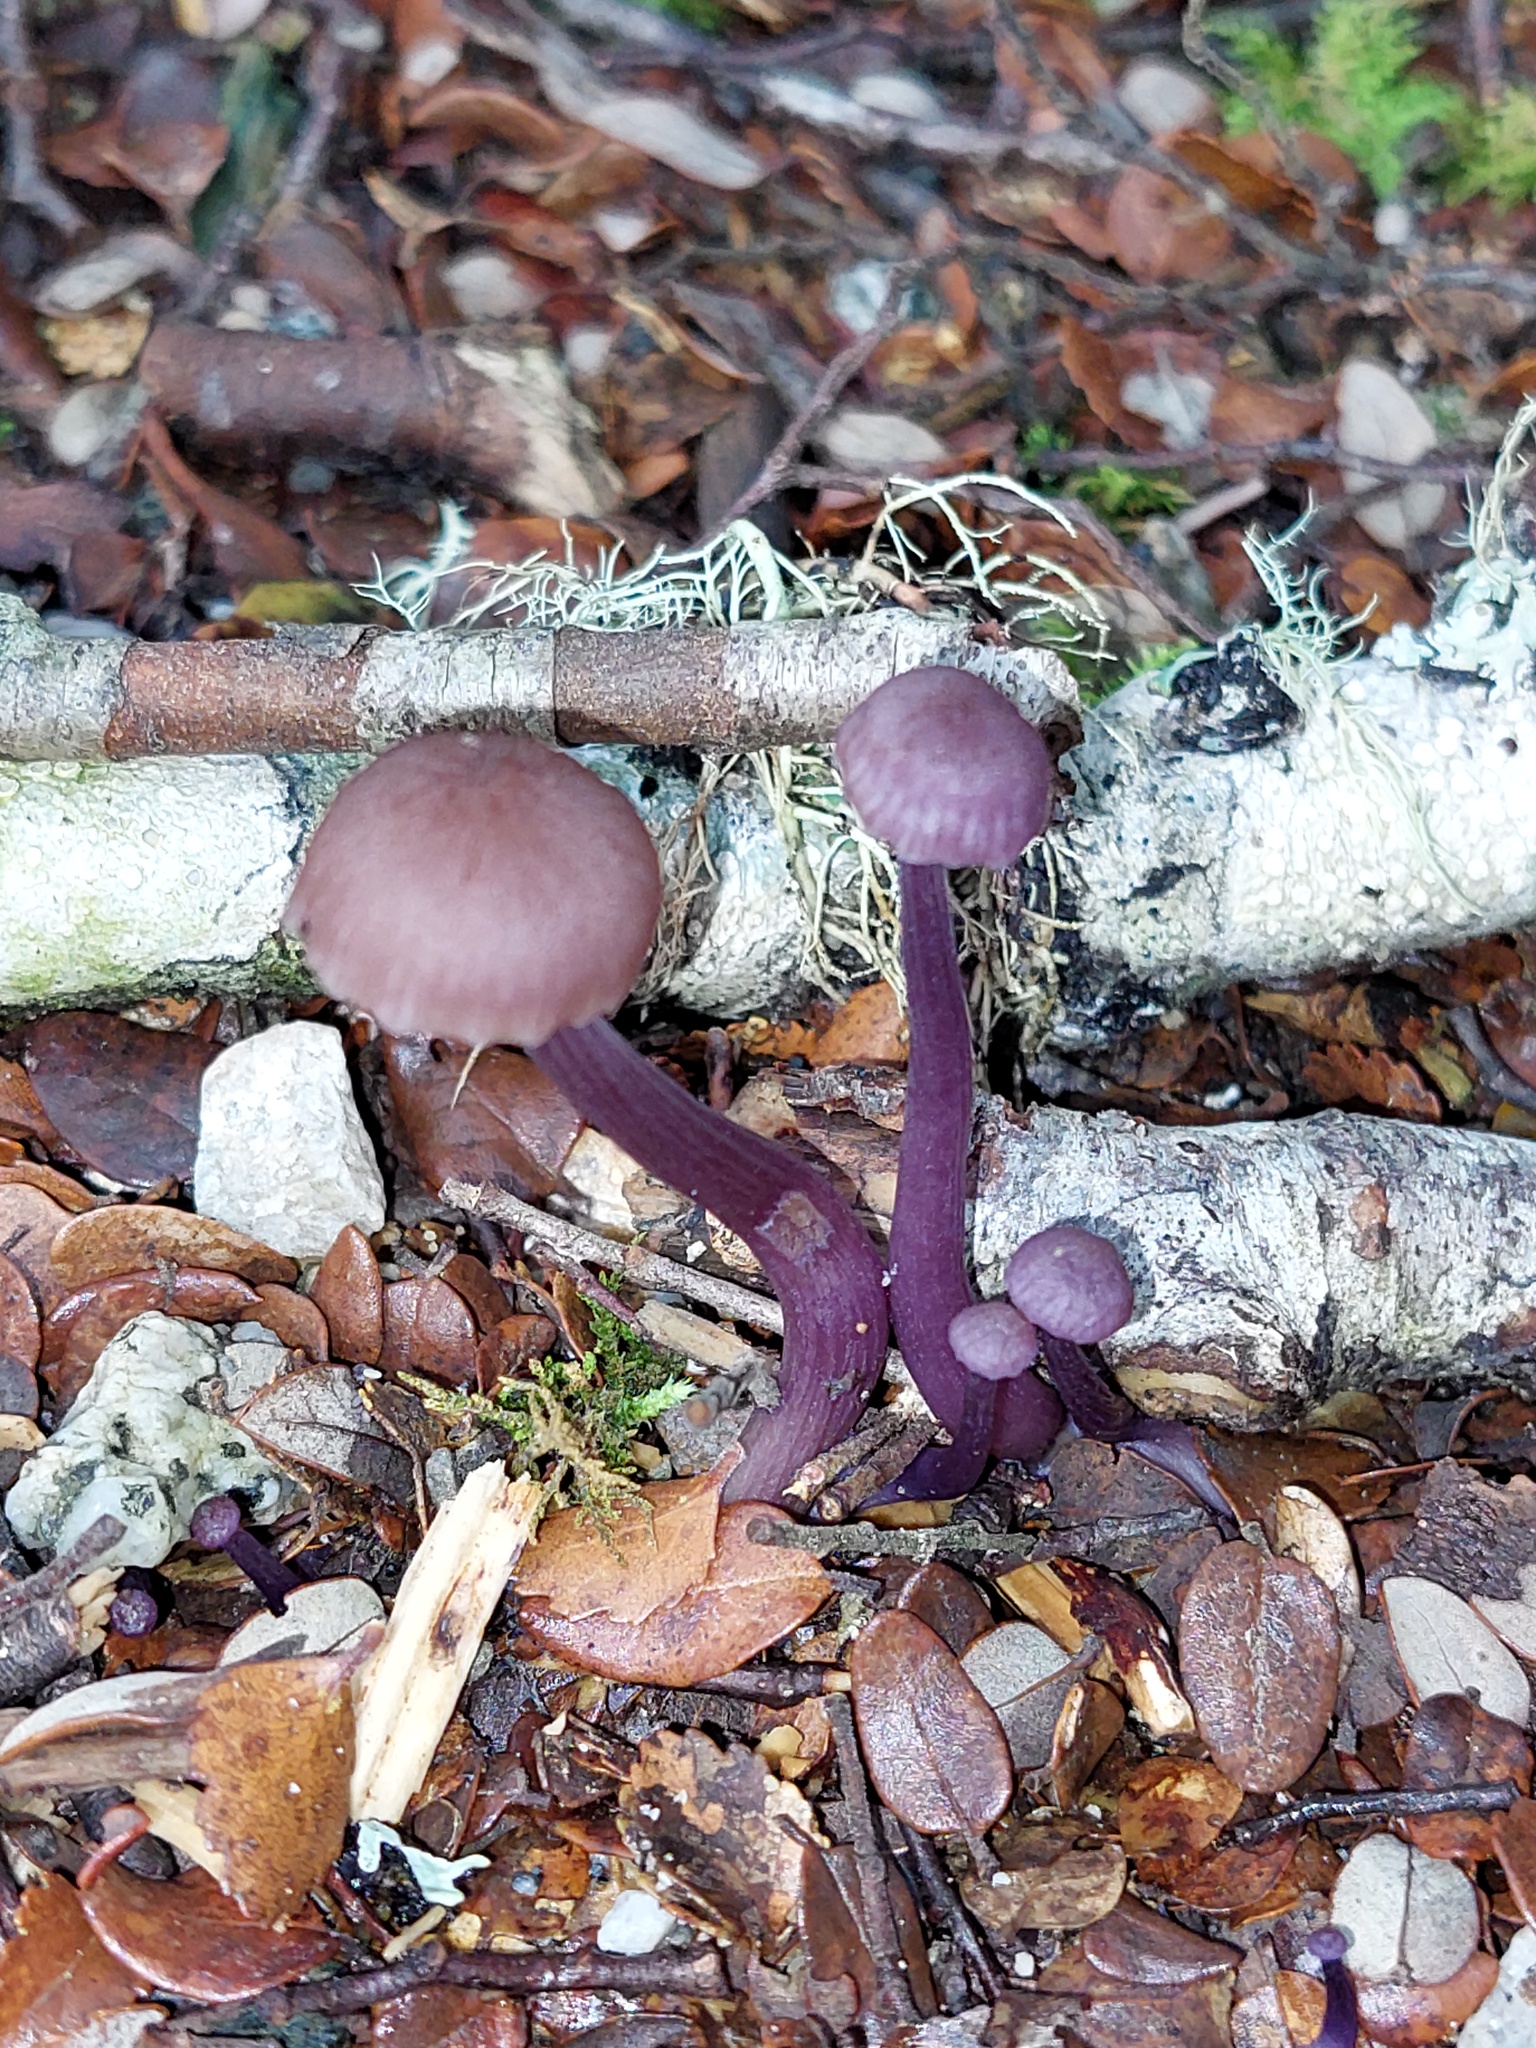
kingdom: Fungi
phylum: Basidiomycota
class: Agaricomycetes
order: Agaricales
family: Hydnangiaceae
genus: Laccaria
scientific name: Laccaria masoniae
